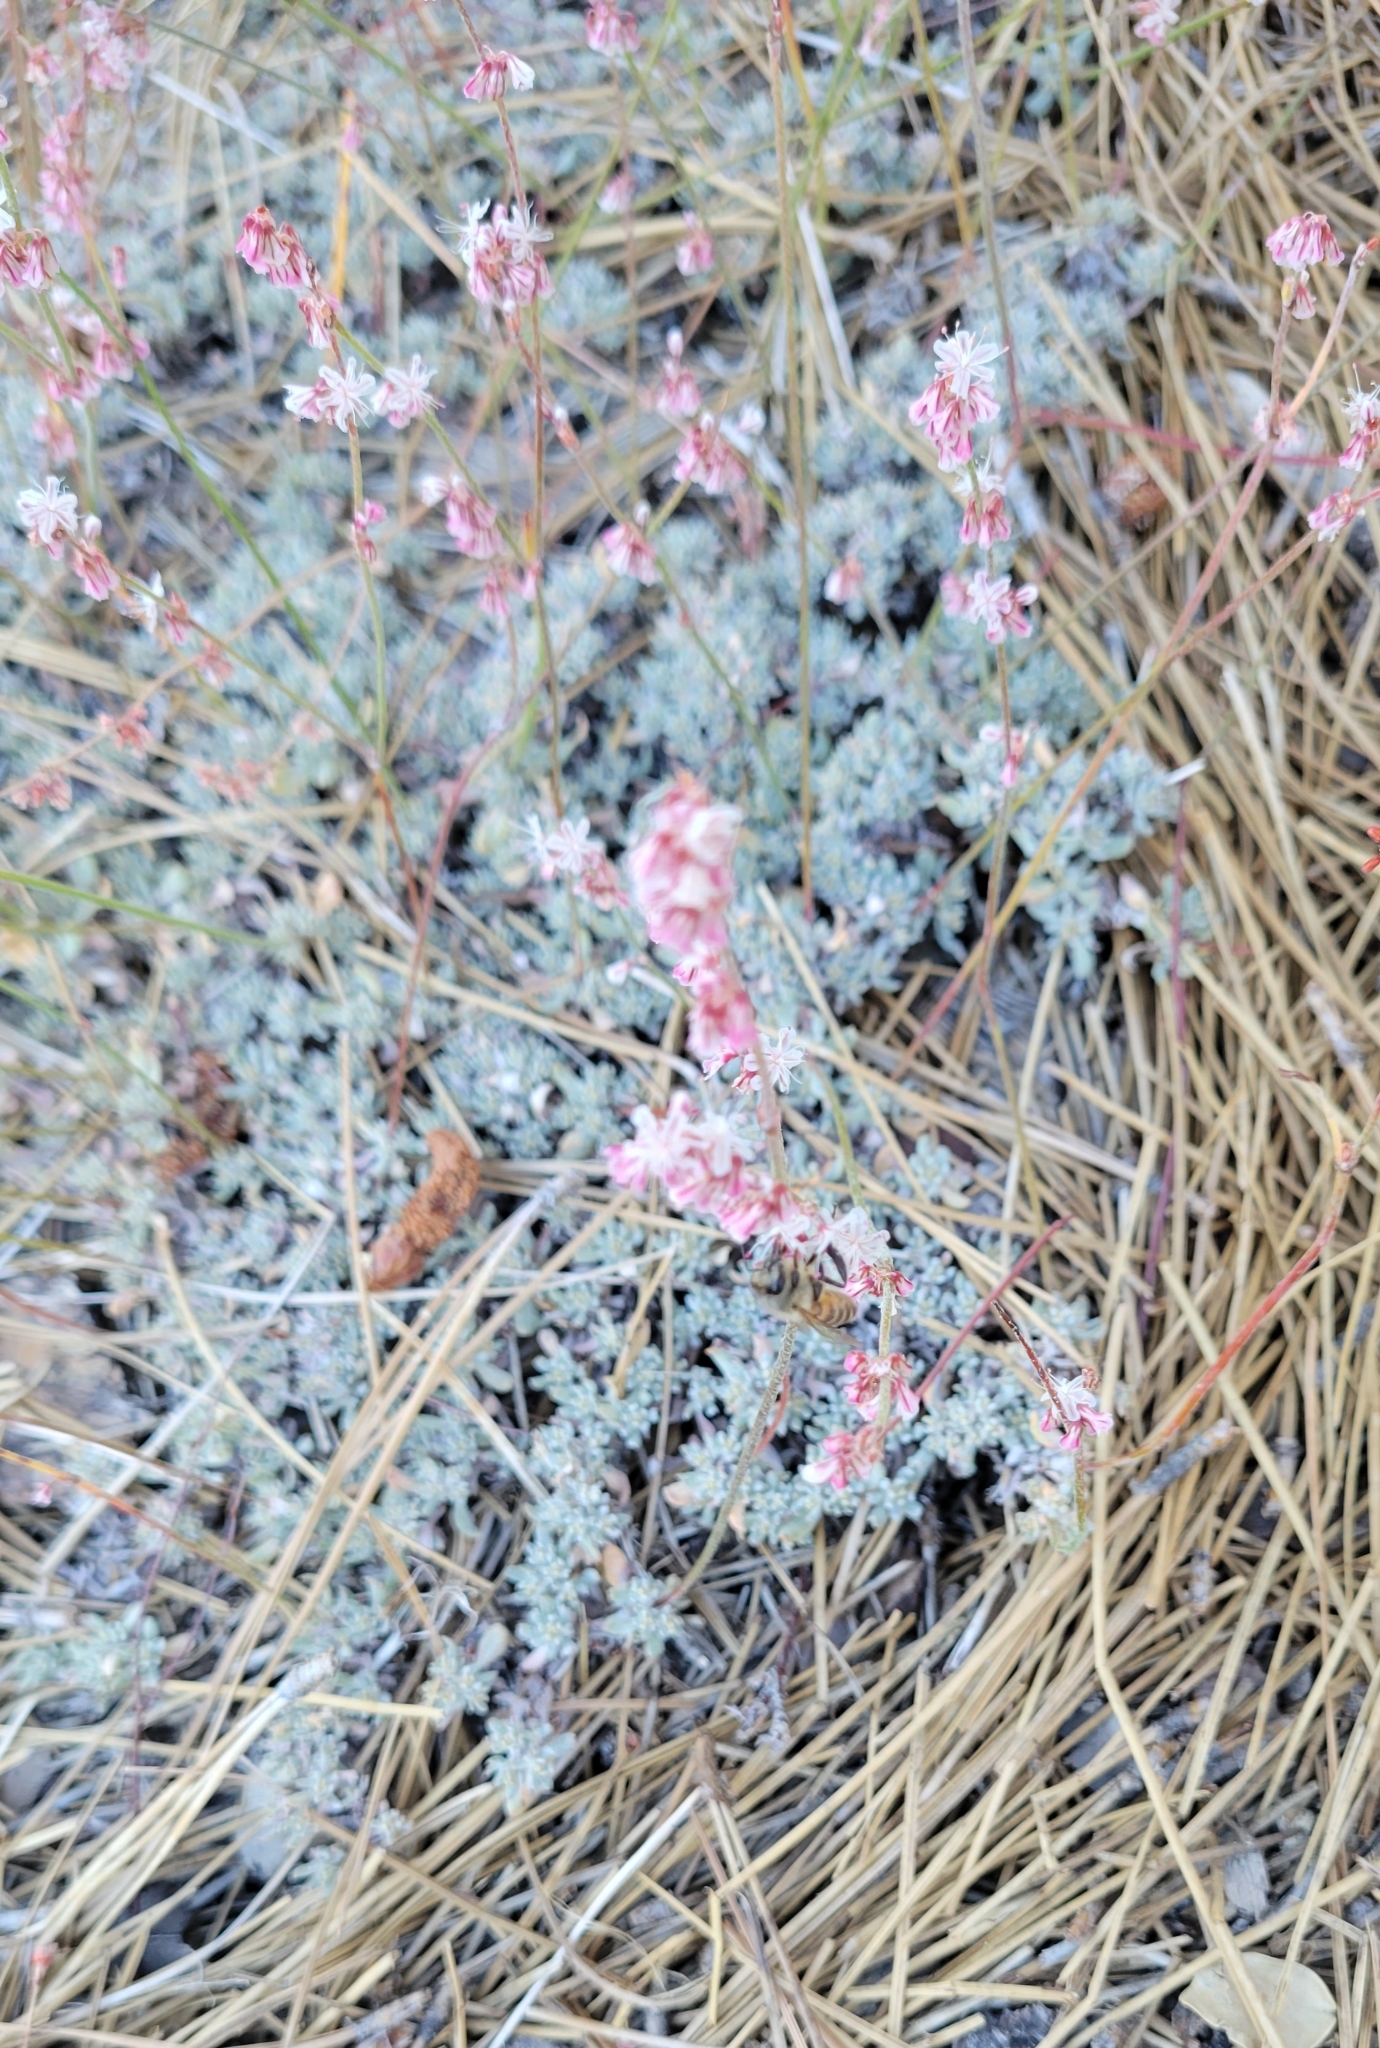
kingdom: Plantae
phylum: Tracheophyta
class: Magnoliopsida
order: Caryophyllales
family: Polygonaceae
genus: Eriogonum
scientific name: Eriogonum wrightii
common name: Bastard-sage
